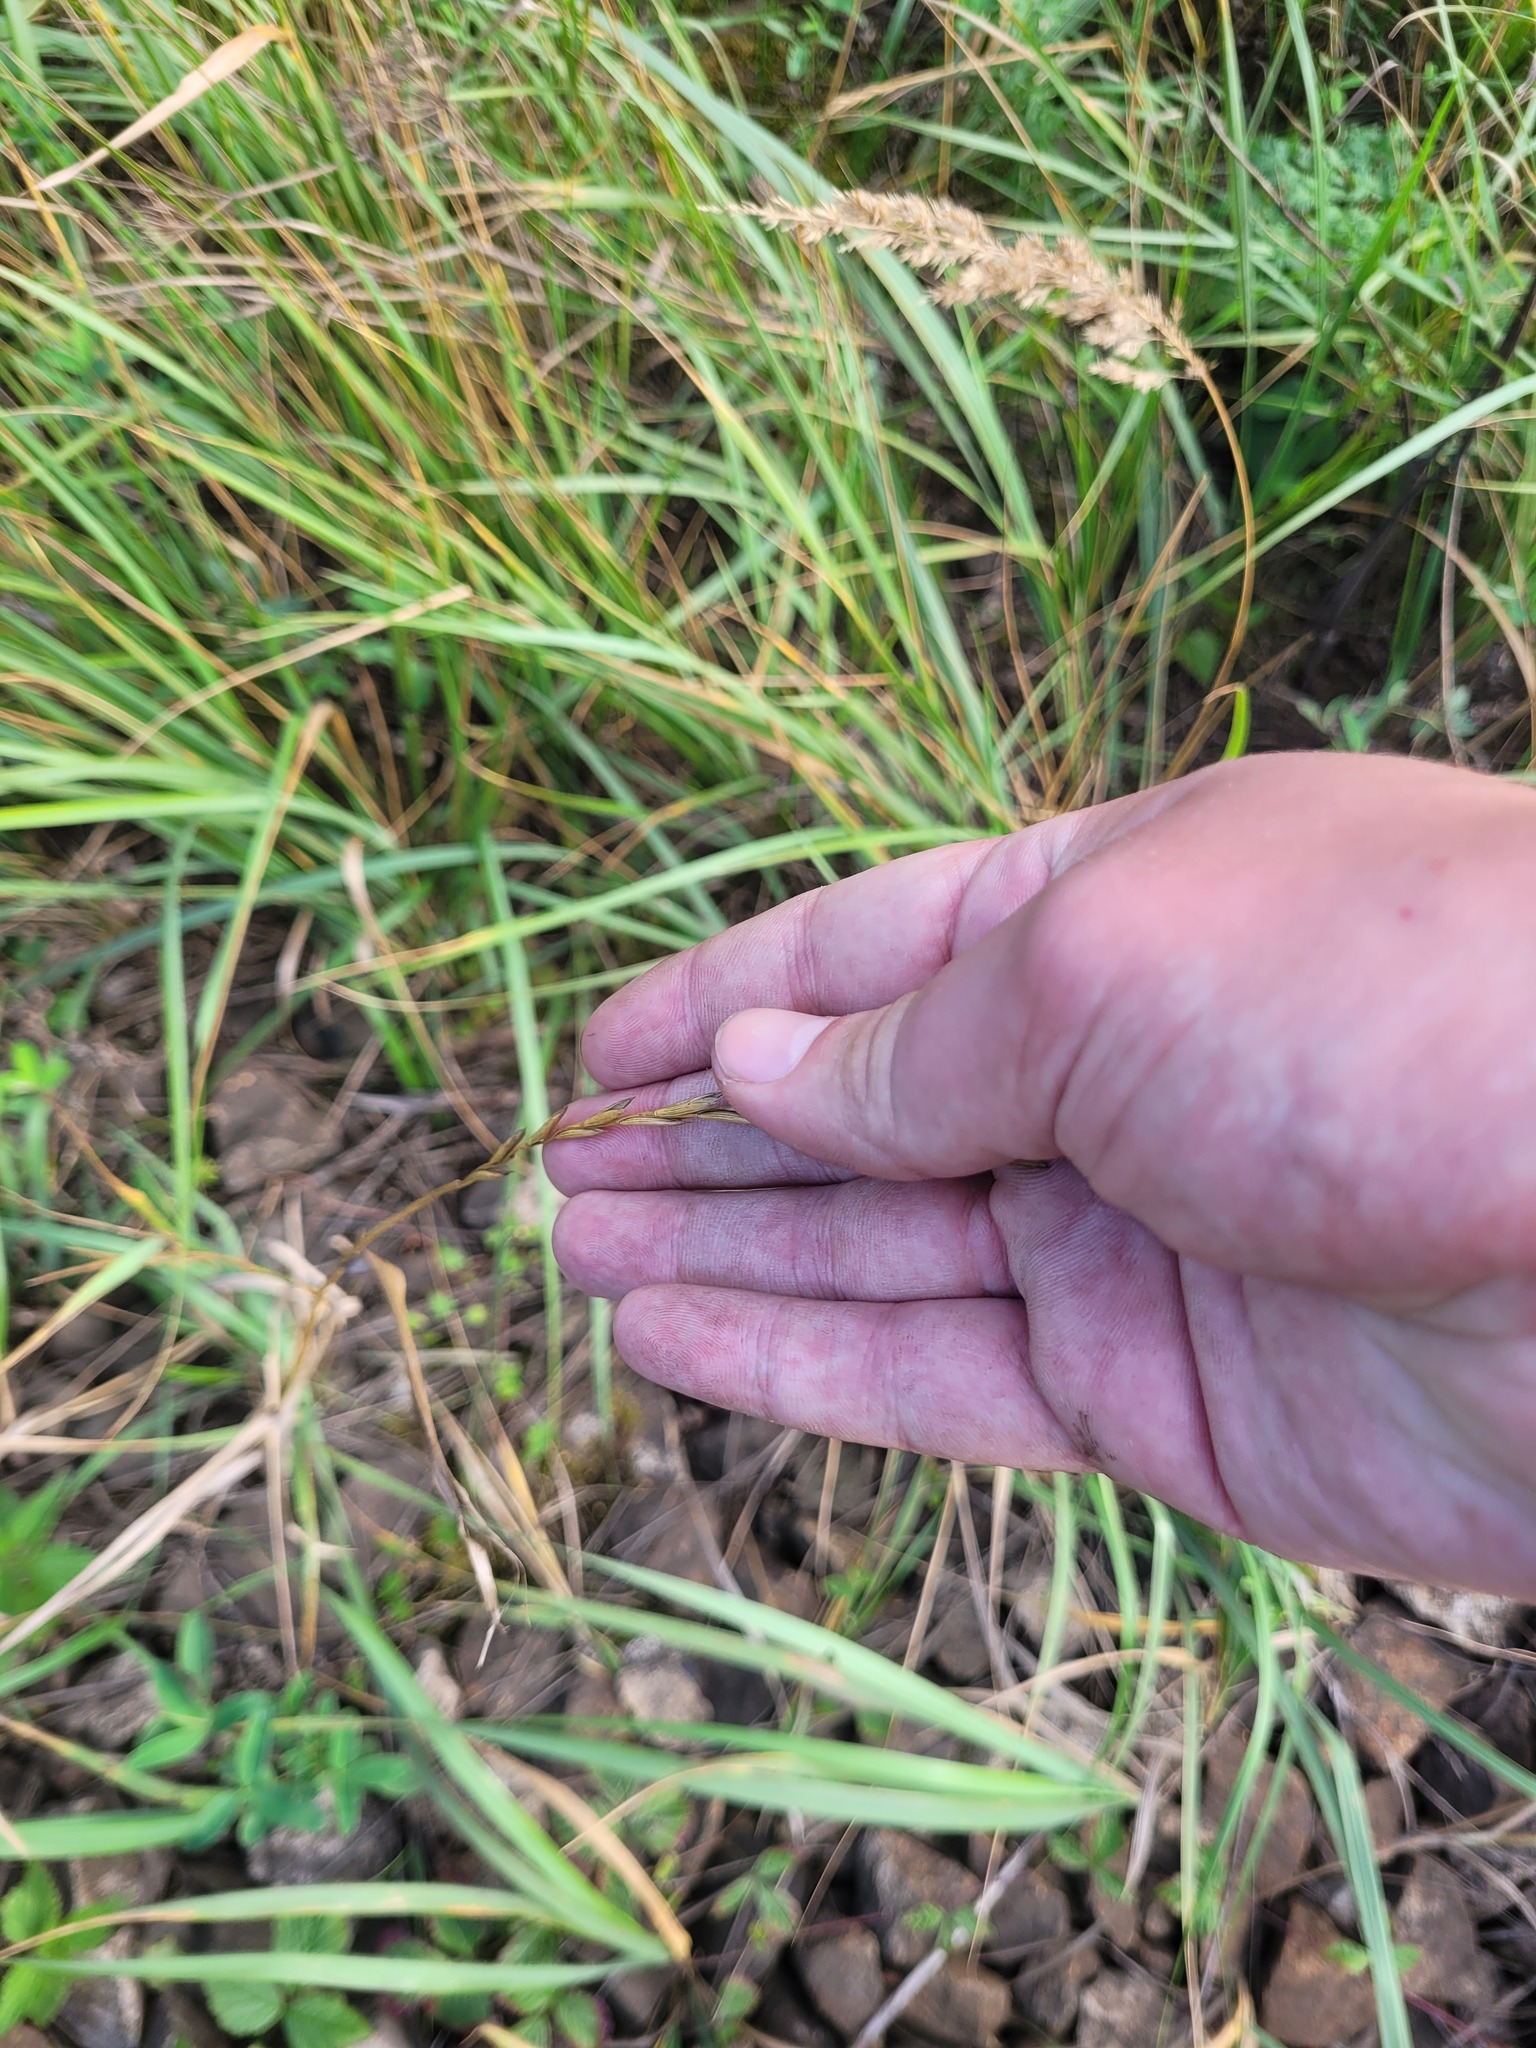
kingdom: Plantae
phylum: Tracheophyta
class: Liliopsida
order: Poales
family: Poaceae
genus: Elymus
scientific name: Elymus repens
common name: Quackgrass
